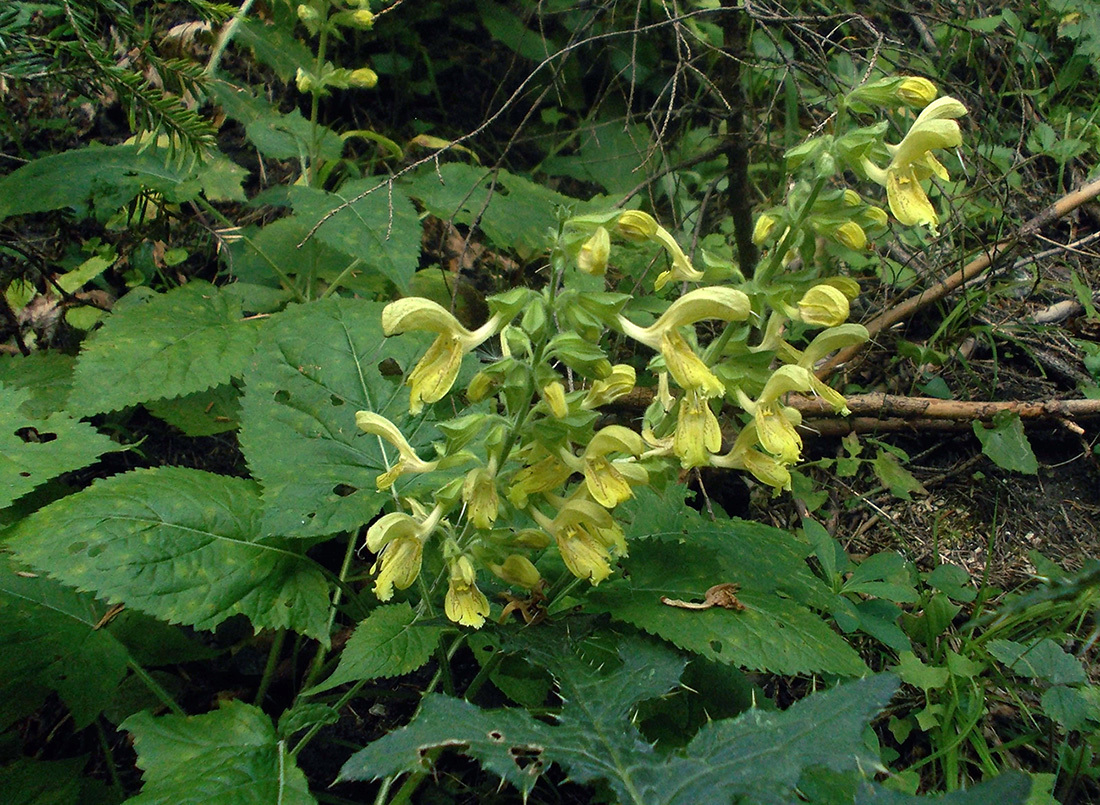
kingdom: Plantae
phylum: Tracheophyta
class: Magnoliopsida
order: Lamiales
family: Lamiaceae
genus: Salvia
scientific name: Salvia glutinosa
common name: Sticky clary
